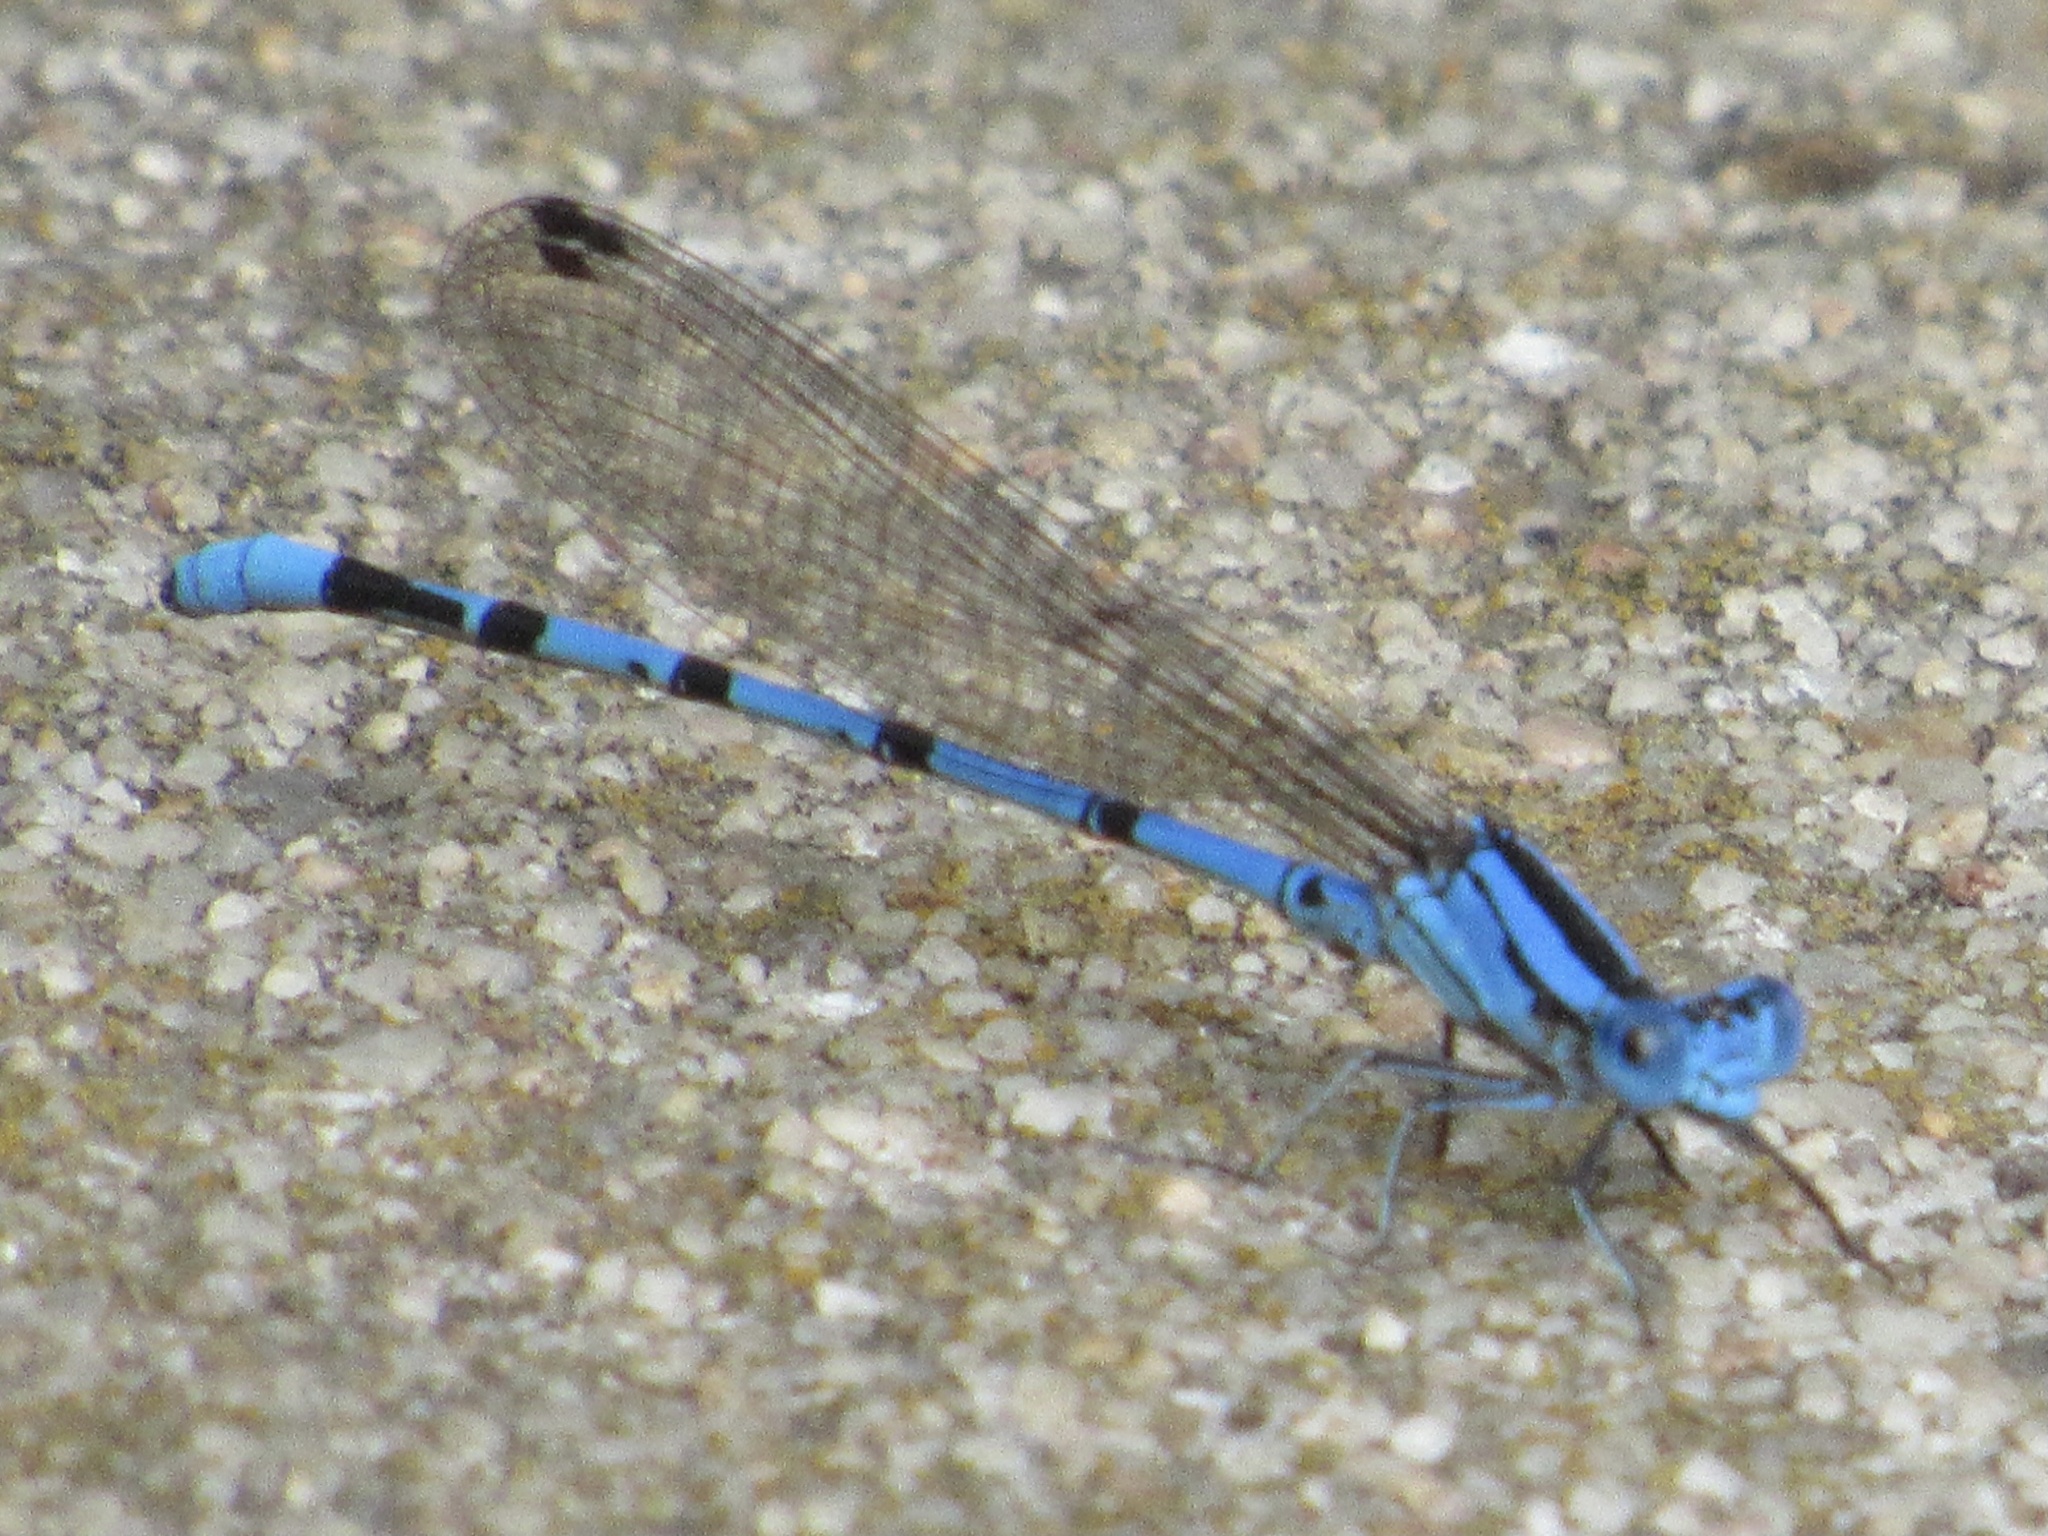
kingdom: Animalia
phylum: Arthropoda
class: Insecta
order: Odonata
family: Coenagrionidae
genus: Argia
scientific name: Argia funebris
